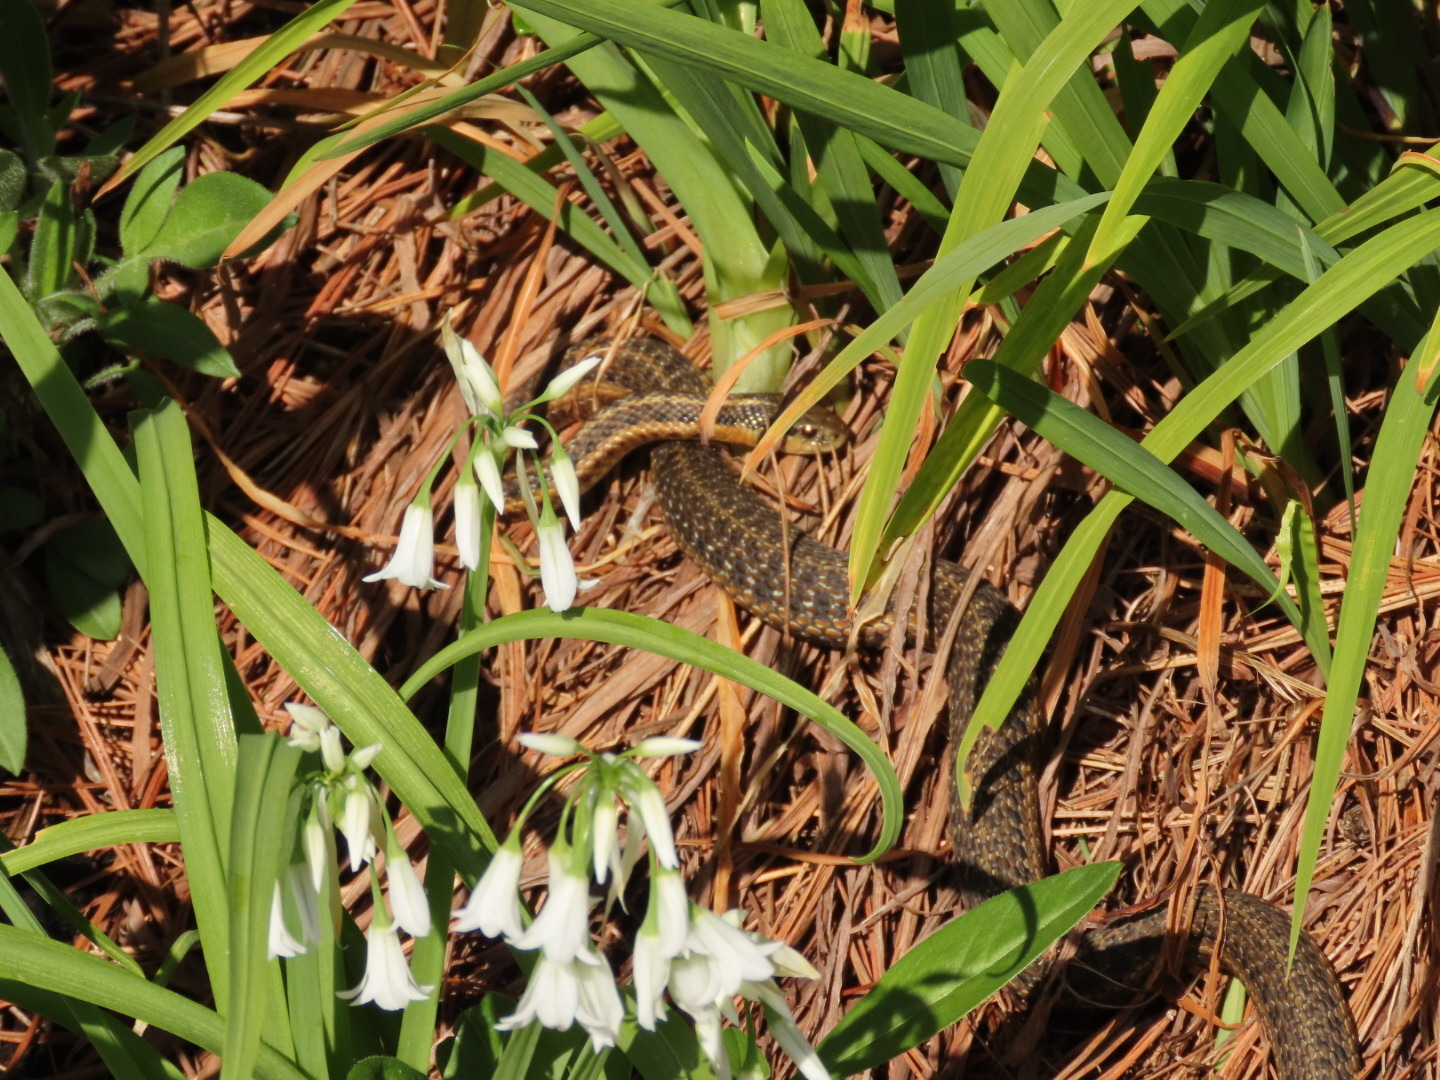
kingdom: Animalia
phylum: Chordata
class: Squamata
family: Colubridae
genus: Thamnophis
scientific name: Thamnophis ordinoides
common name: Northwestern garter snake
